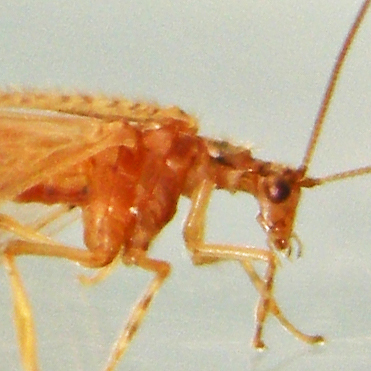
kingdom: Animalia
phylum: Arthropoda
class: Insecta
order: Neuroptera
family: Hemerobiidae
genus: Micromus
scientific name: Micromus posticus
